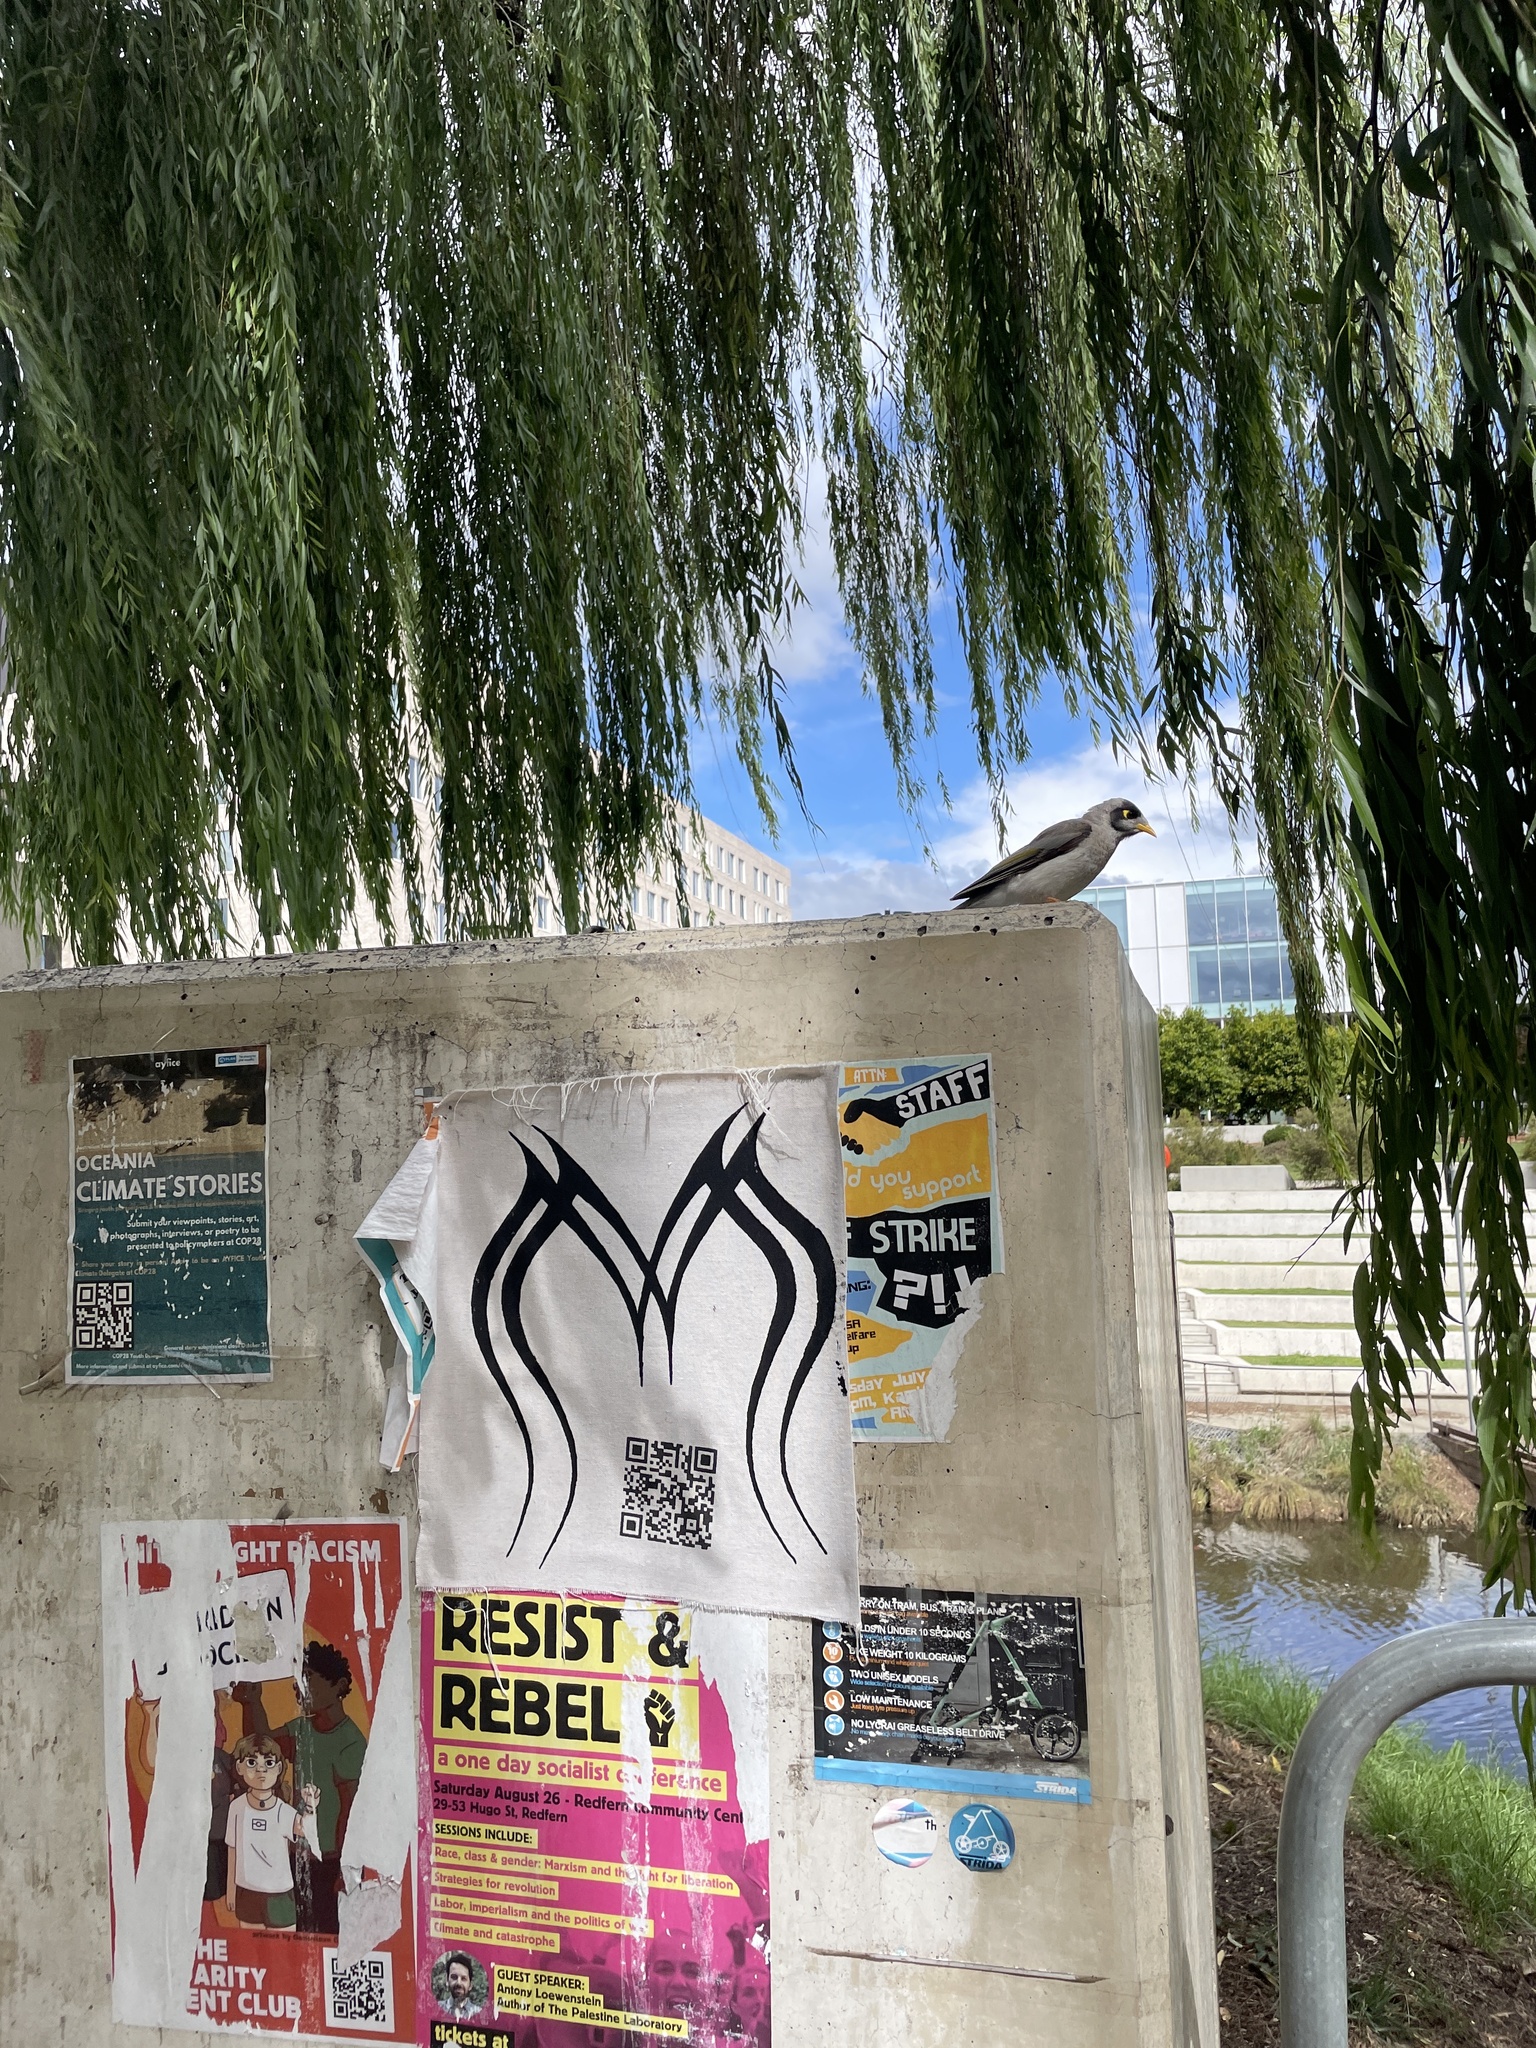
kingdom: Animalia
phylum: Chordata
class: Aves
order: Passeriformes
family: Meliphagidae
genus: Manorina
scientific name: Manorina melanocephala
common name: Noisy miner
